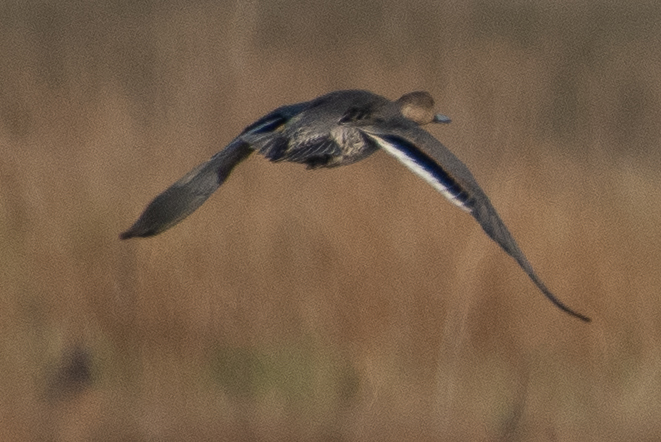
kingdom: Animalia
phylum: Chordata
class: Aves
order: Anseriformes
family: Anatidae
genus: Anas
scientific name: Anas acuta
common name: Northern pintail
